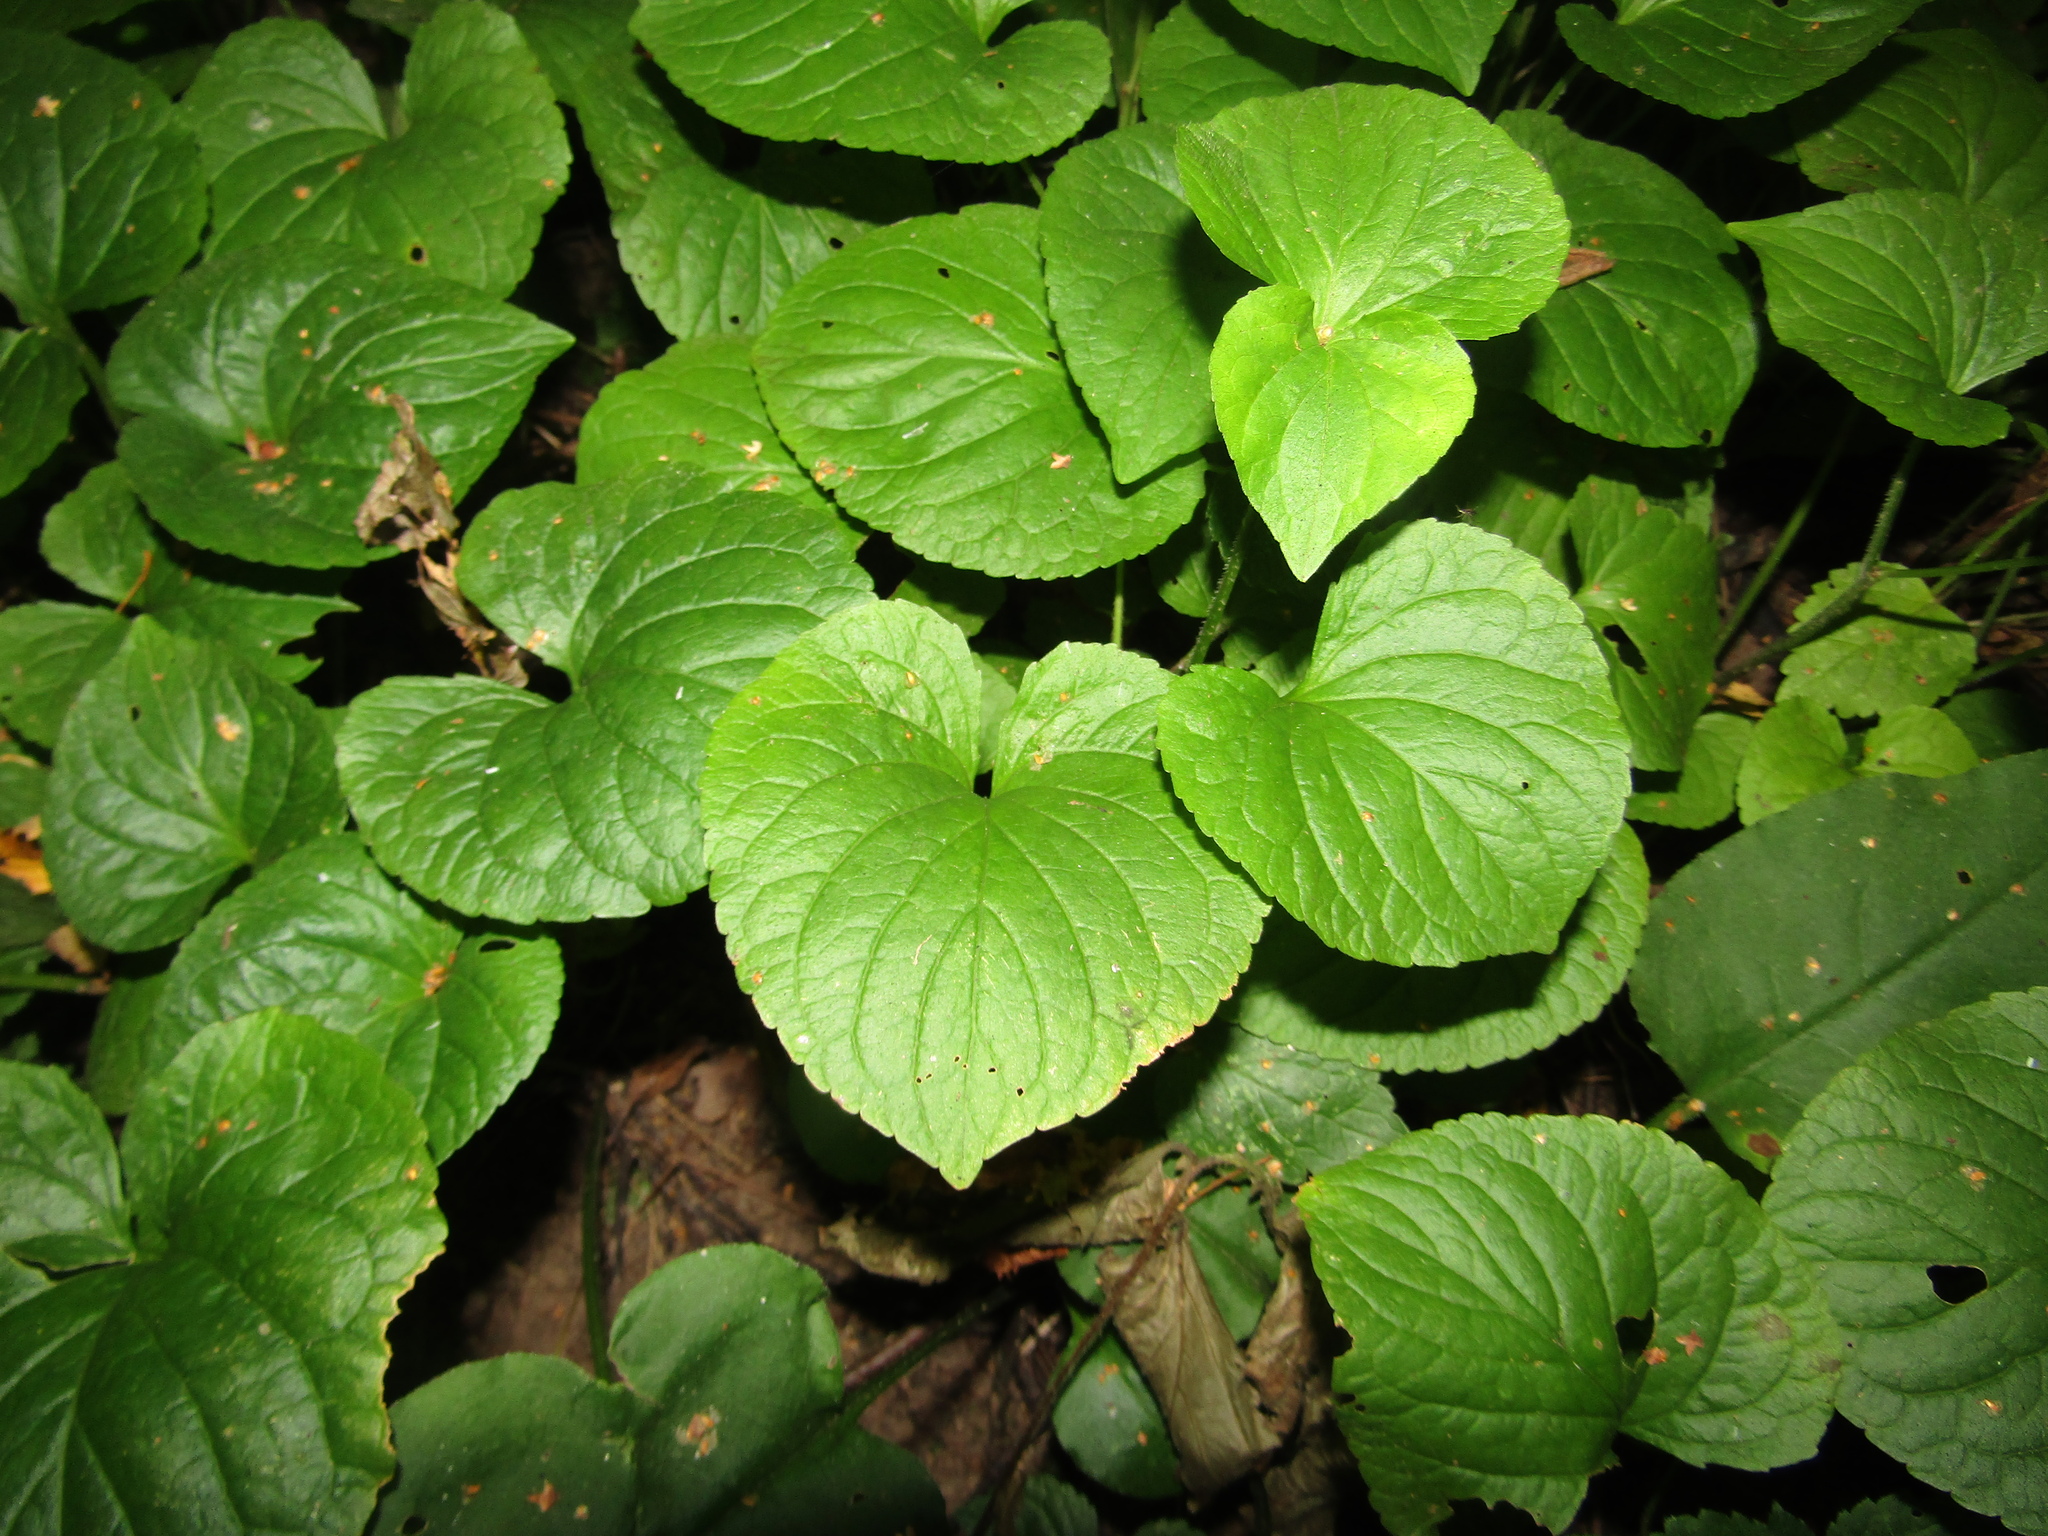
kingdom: Plantae
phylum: Tracheophyta
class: Magnoliopsida
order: Malpighiales
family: Violaceae
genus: Viola
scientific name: Viola mirabilis
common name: Wonder violet
